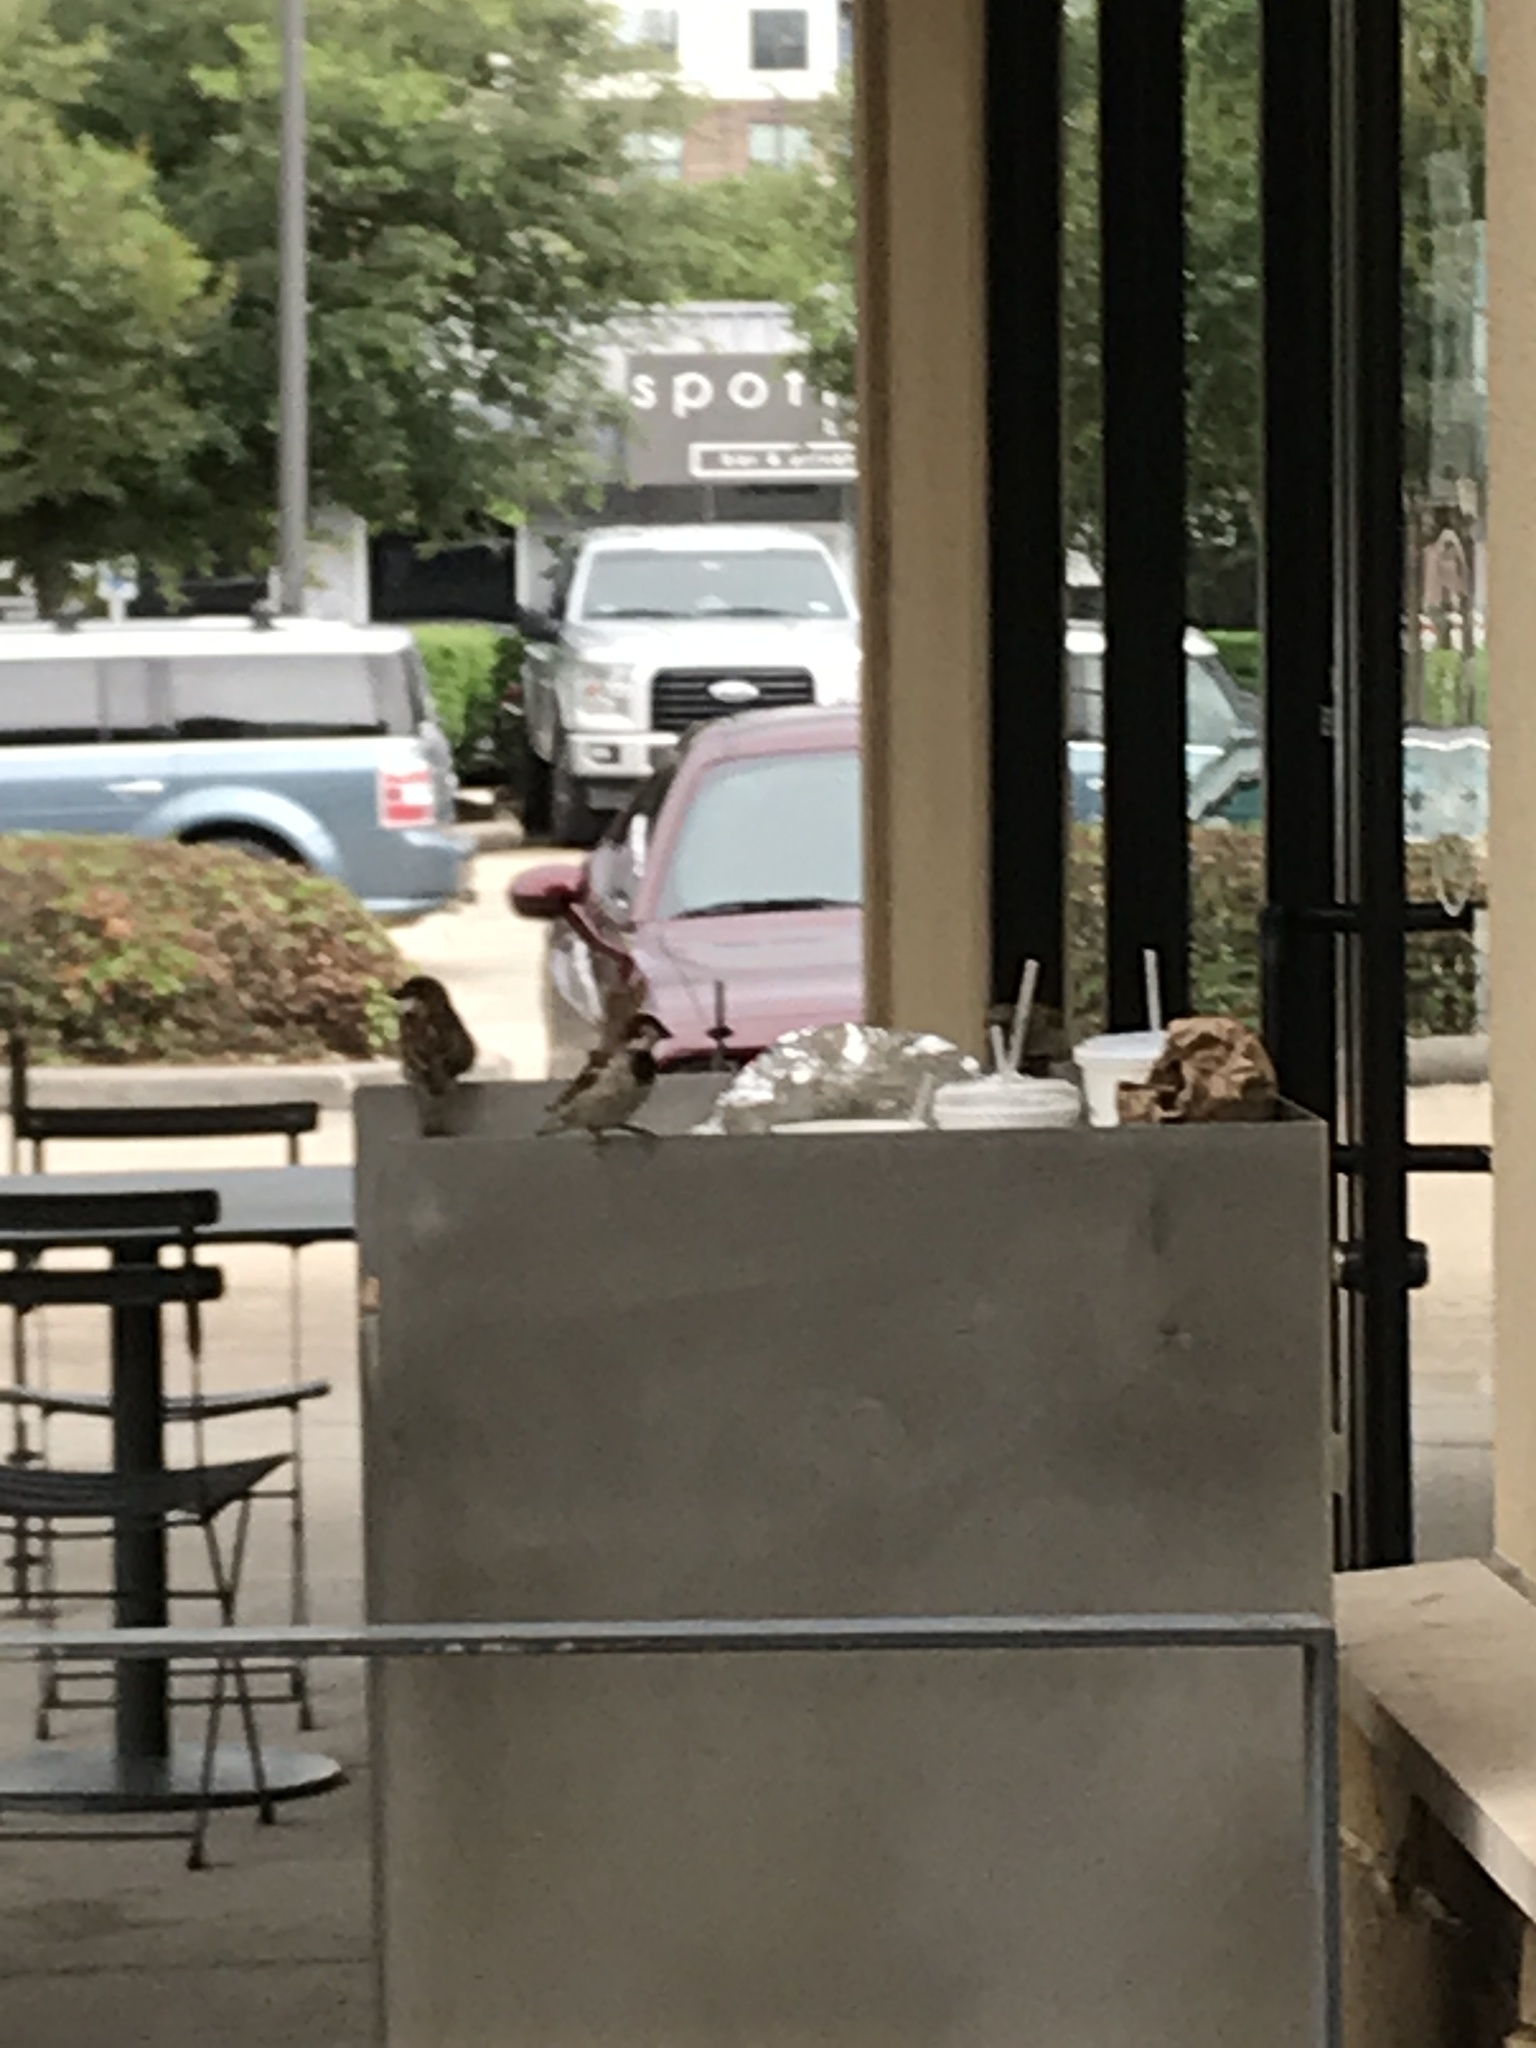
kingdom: Animalia
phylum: Chordata
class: Aves
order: Passeriformes
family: Passeridae
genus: Passer
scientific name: Passer domesticus
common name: House sparrow
